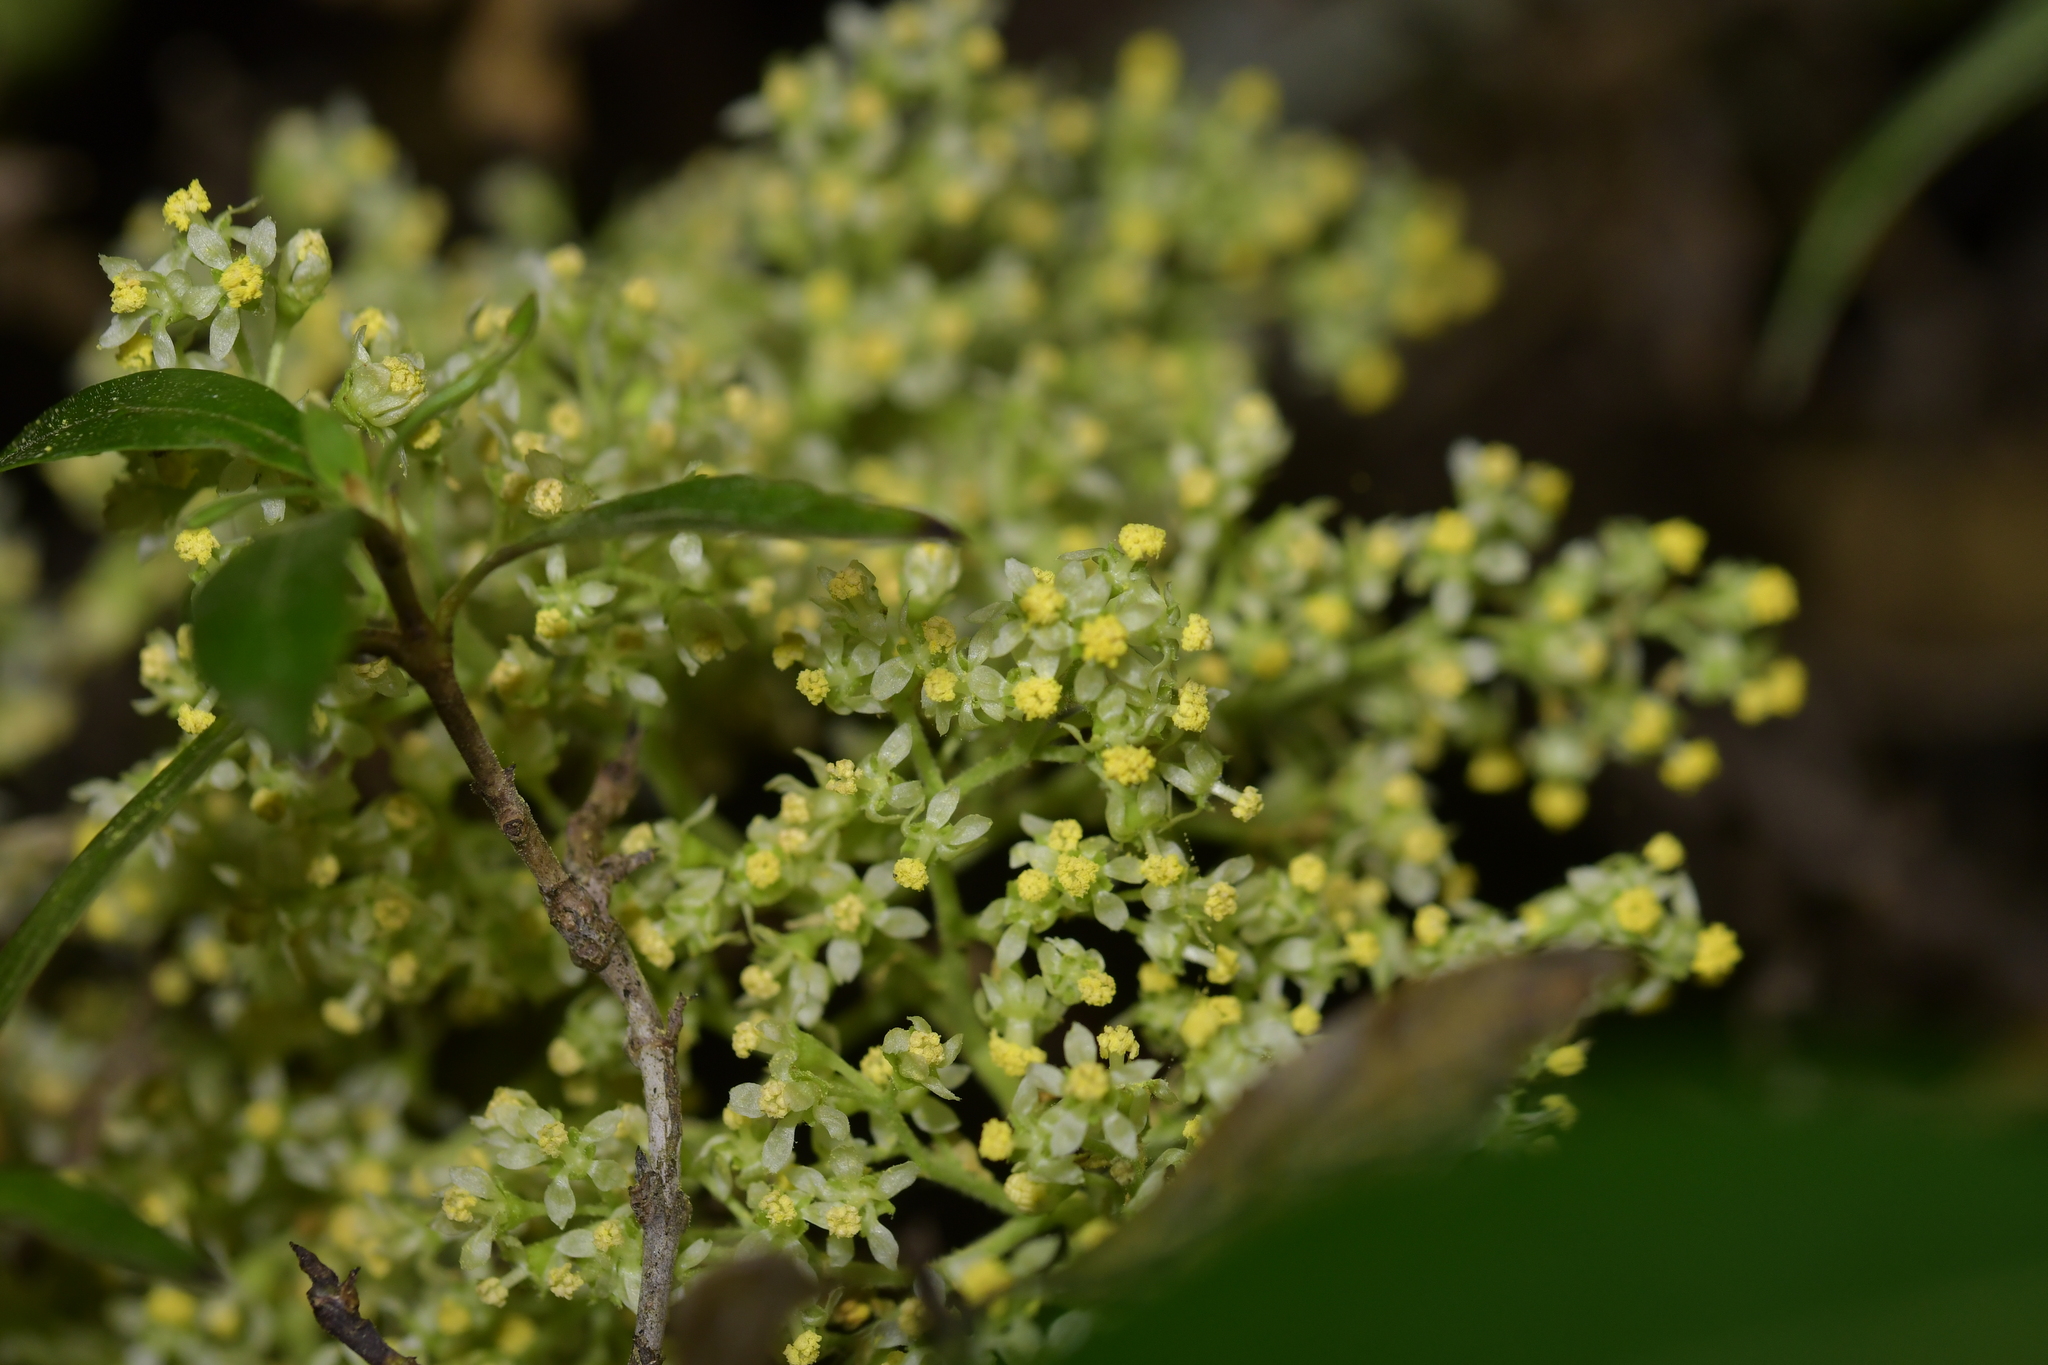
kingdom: Plantae
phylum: Tracheophyta
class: Magnoliopsida
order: Malvales
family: Malvaceae
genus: Plagianthus
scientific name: Plagianthus regius
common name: Manatu
